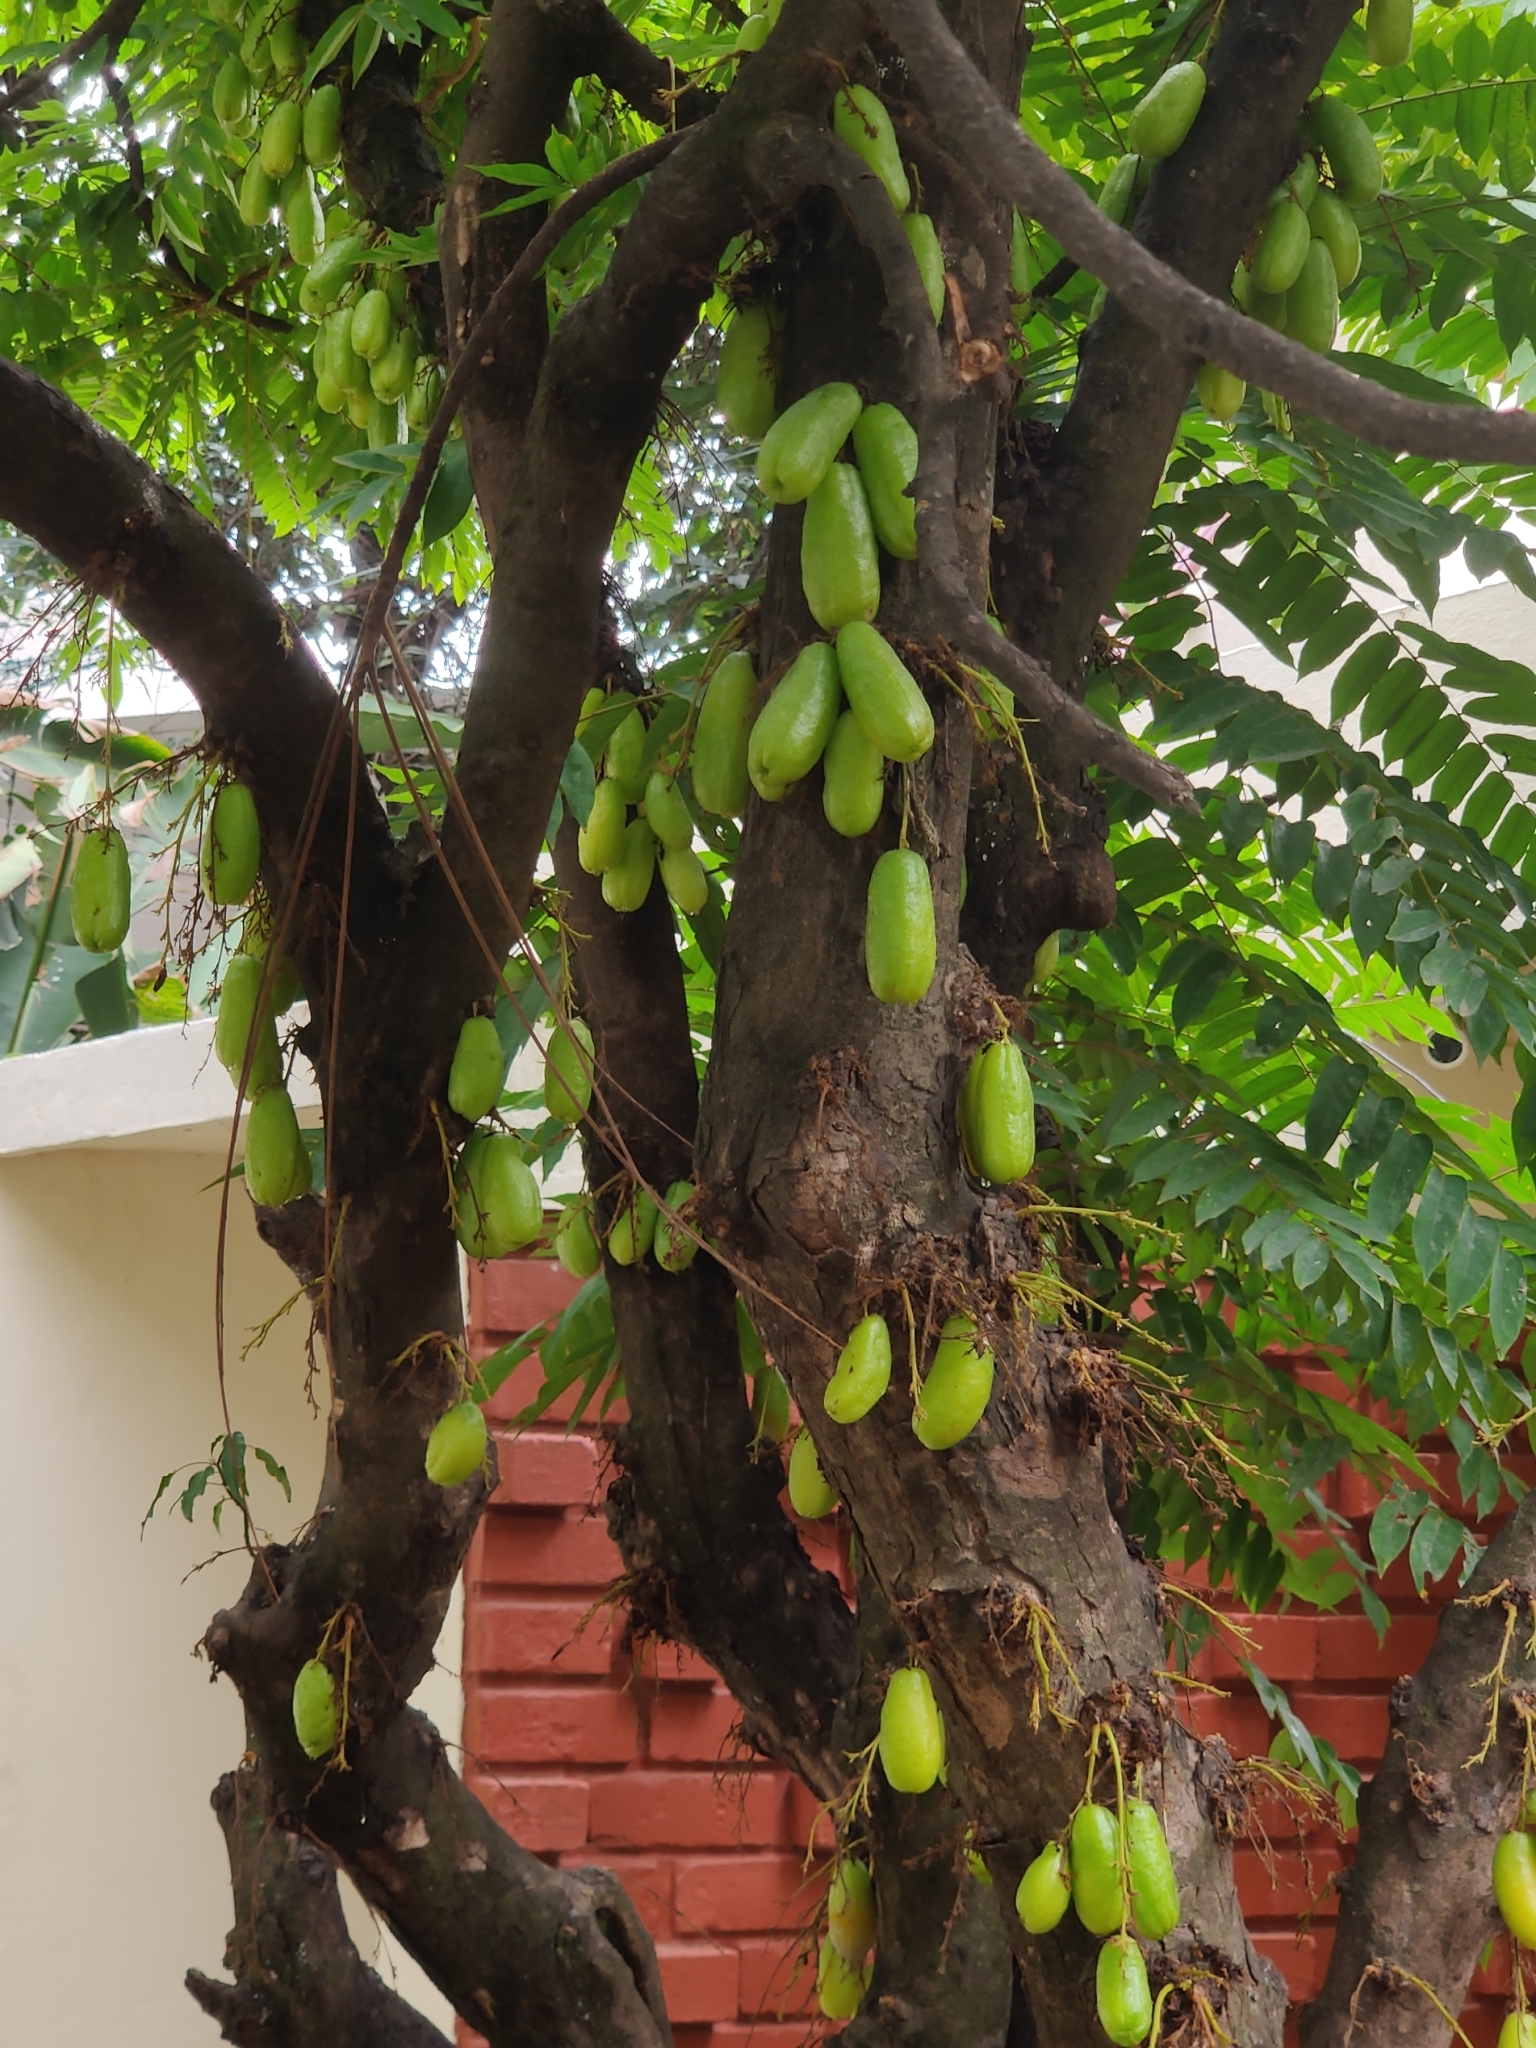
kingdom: Plantae
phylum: Tracheophyta
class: Magnoliopsida
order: Oxalidales
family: Oxalidaceae
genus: Averrhoa
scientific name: Averrhoa bilimbi
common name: Bilimbi
